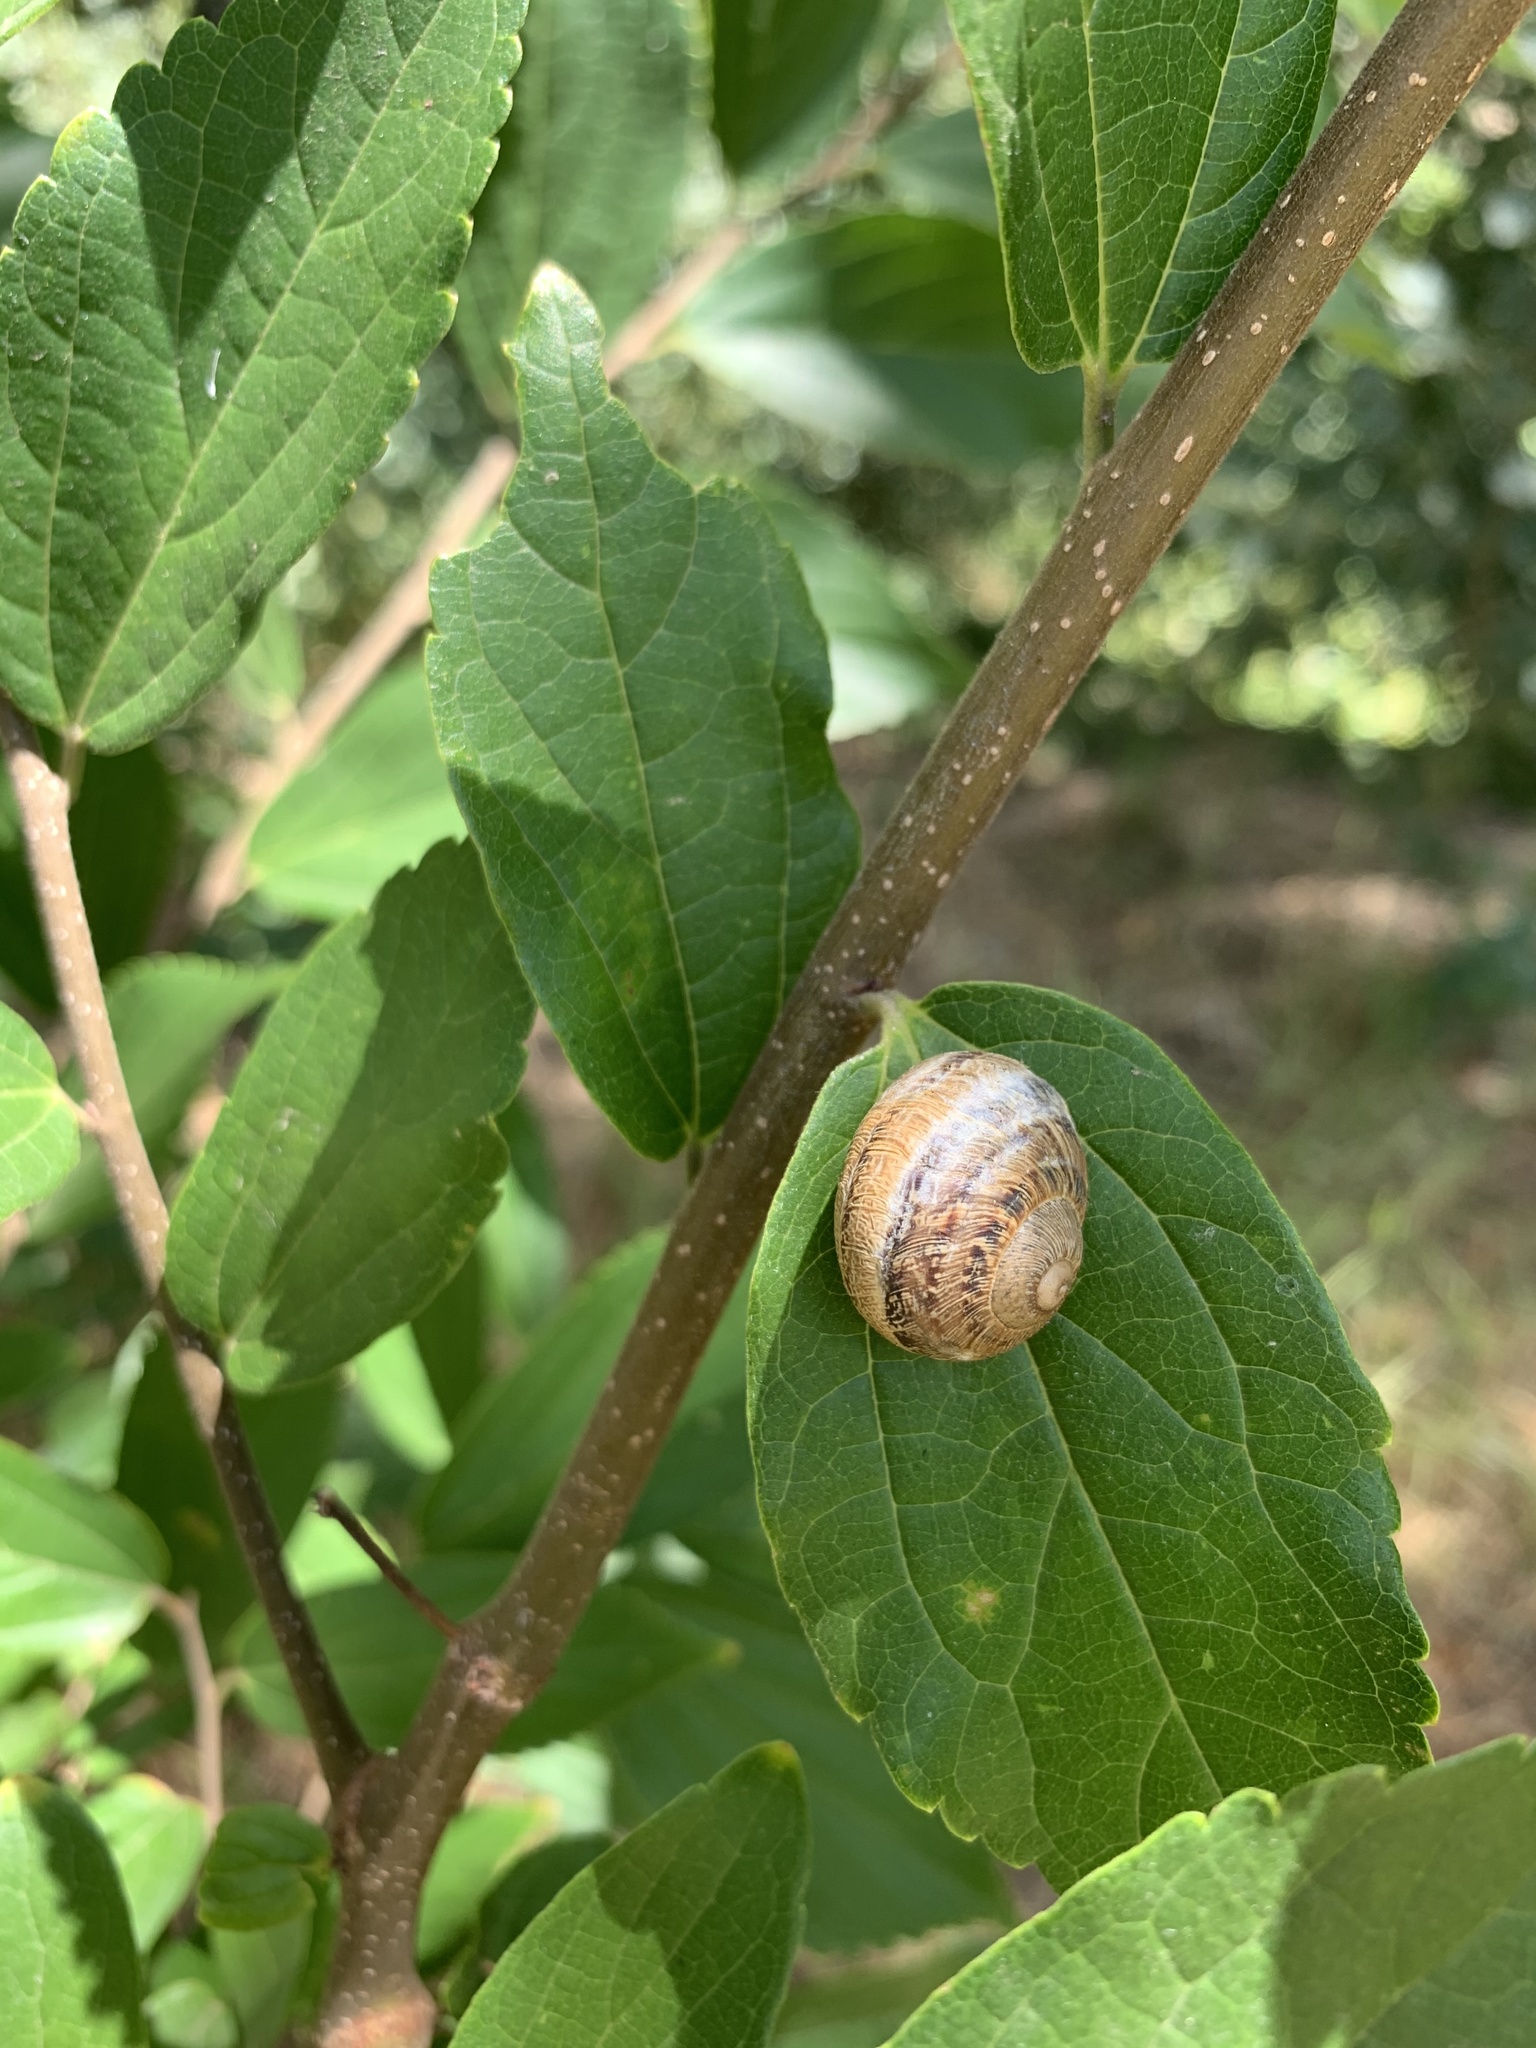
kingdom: Animalia
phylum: Mollusca
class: Gastropoda
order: Stylommatophora
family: Helicidae
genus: Cornu
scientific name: Cornu aspersum
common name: Brown garden snail
